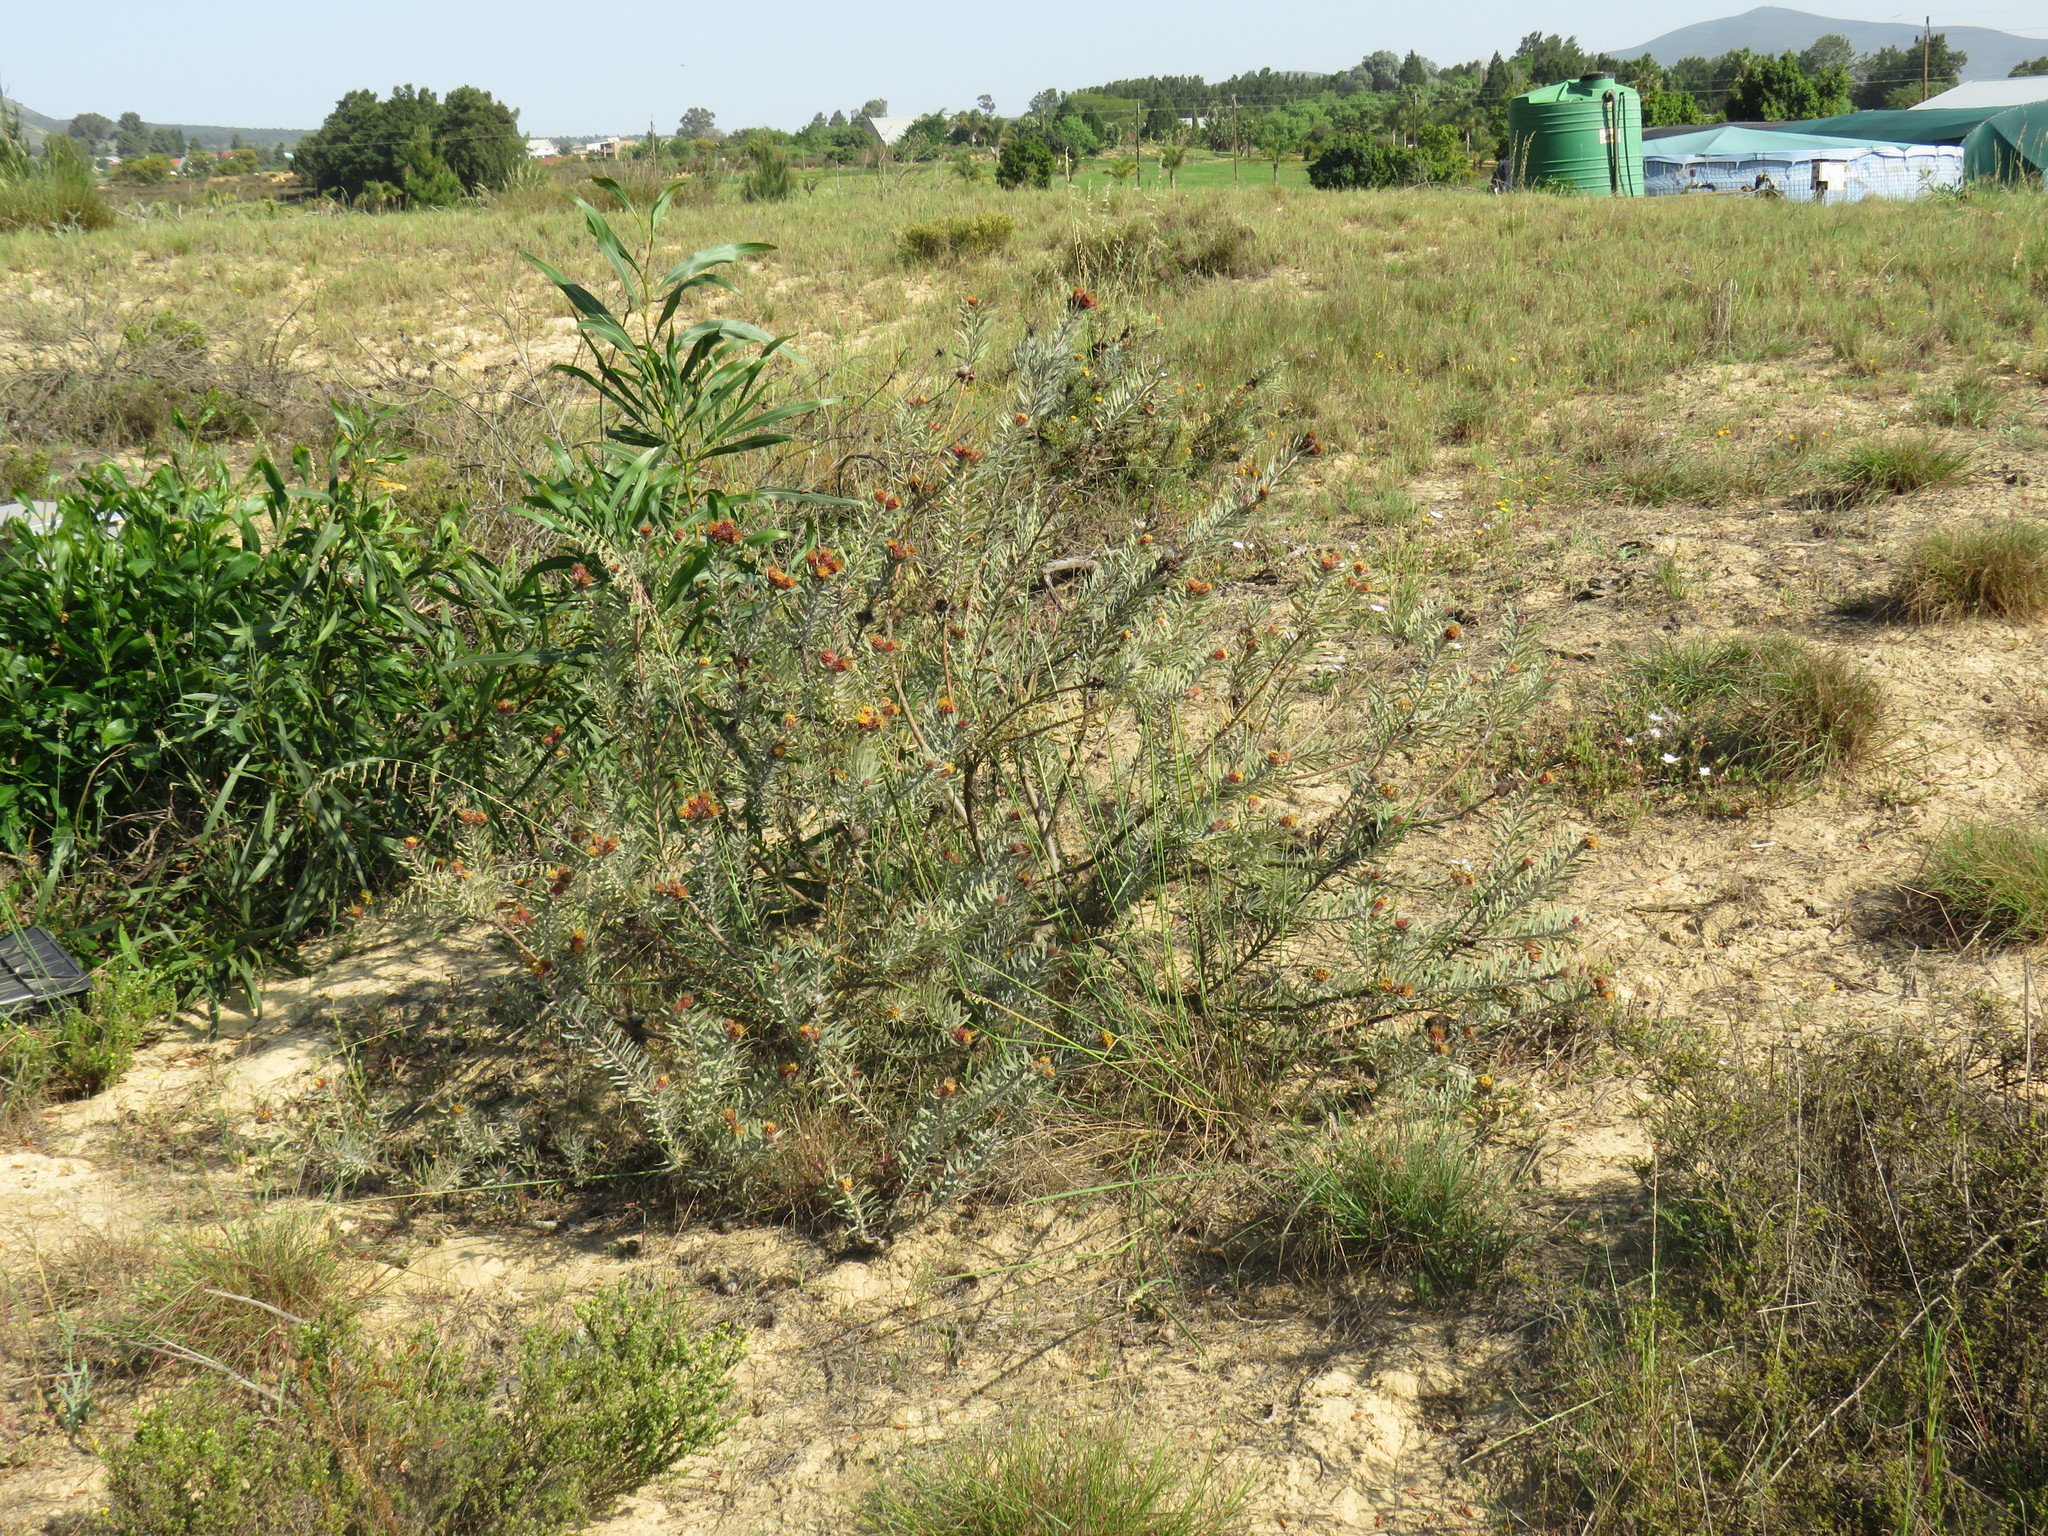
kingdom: Plantae
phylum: Tracheophyta
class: Magnoliopsida
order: Proteales
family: Proteaceae
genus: Leucospermum
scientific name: Leucospermum parile
